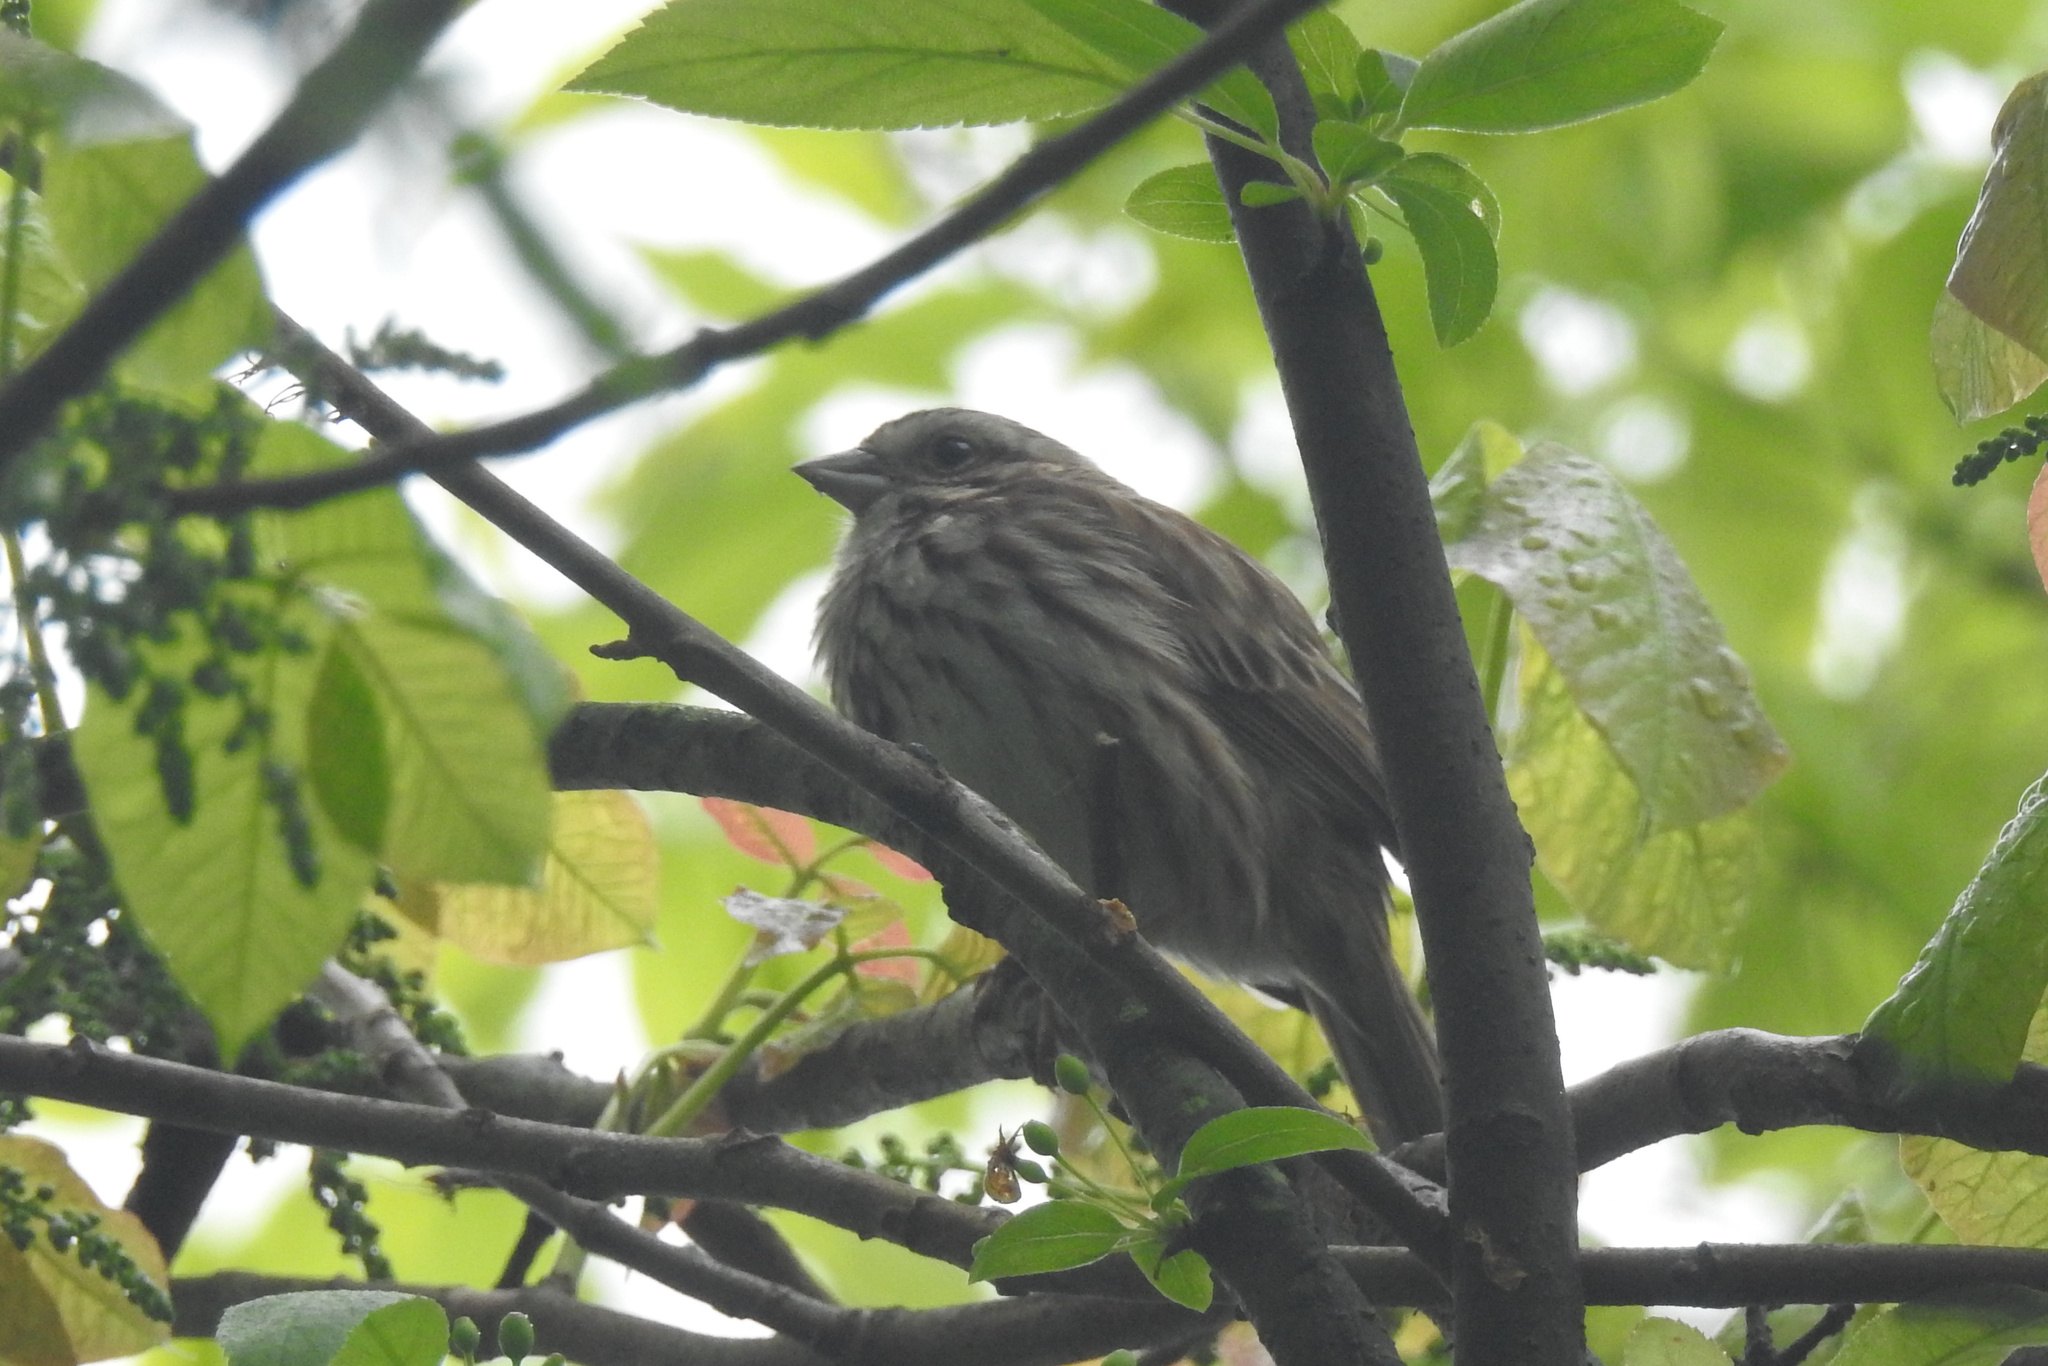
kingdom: Animalia
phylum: Chordata
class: Aves
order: Passeriformes
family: Passerellidae
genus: Melospiza
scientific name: Melospiza melodia
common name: Song sparrow
